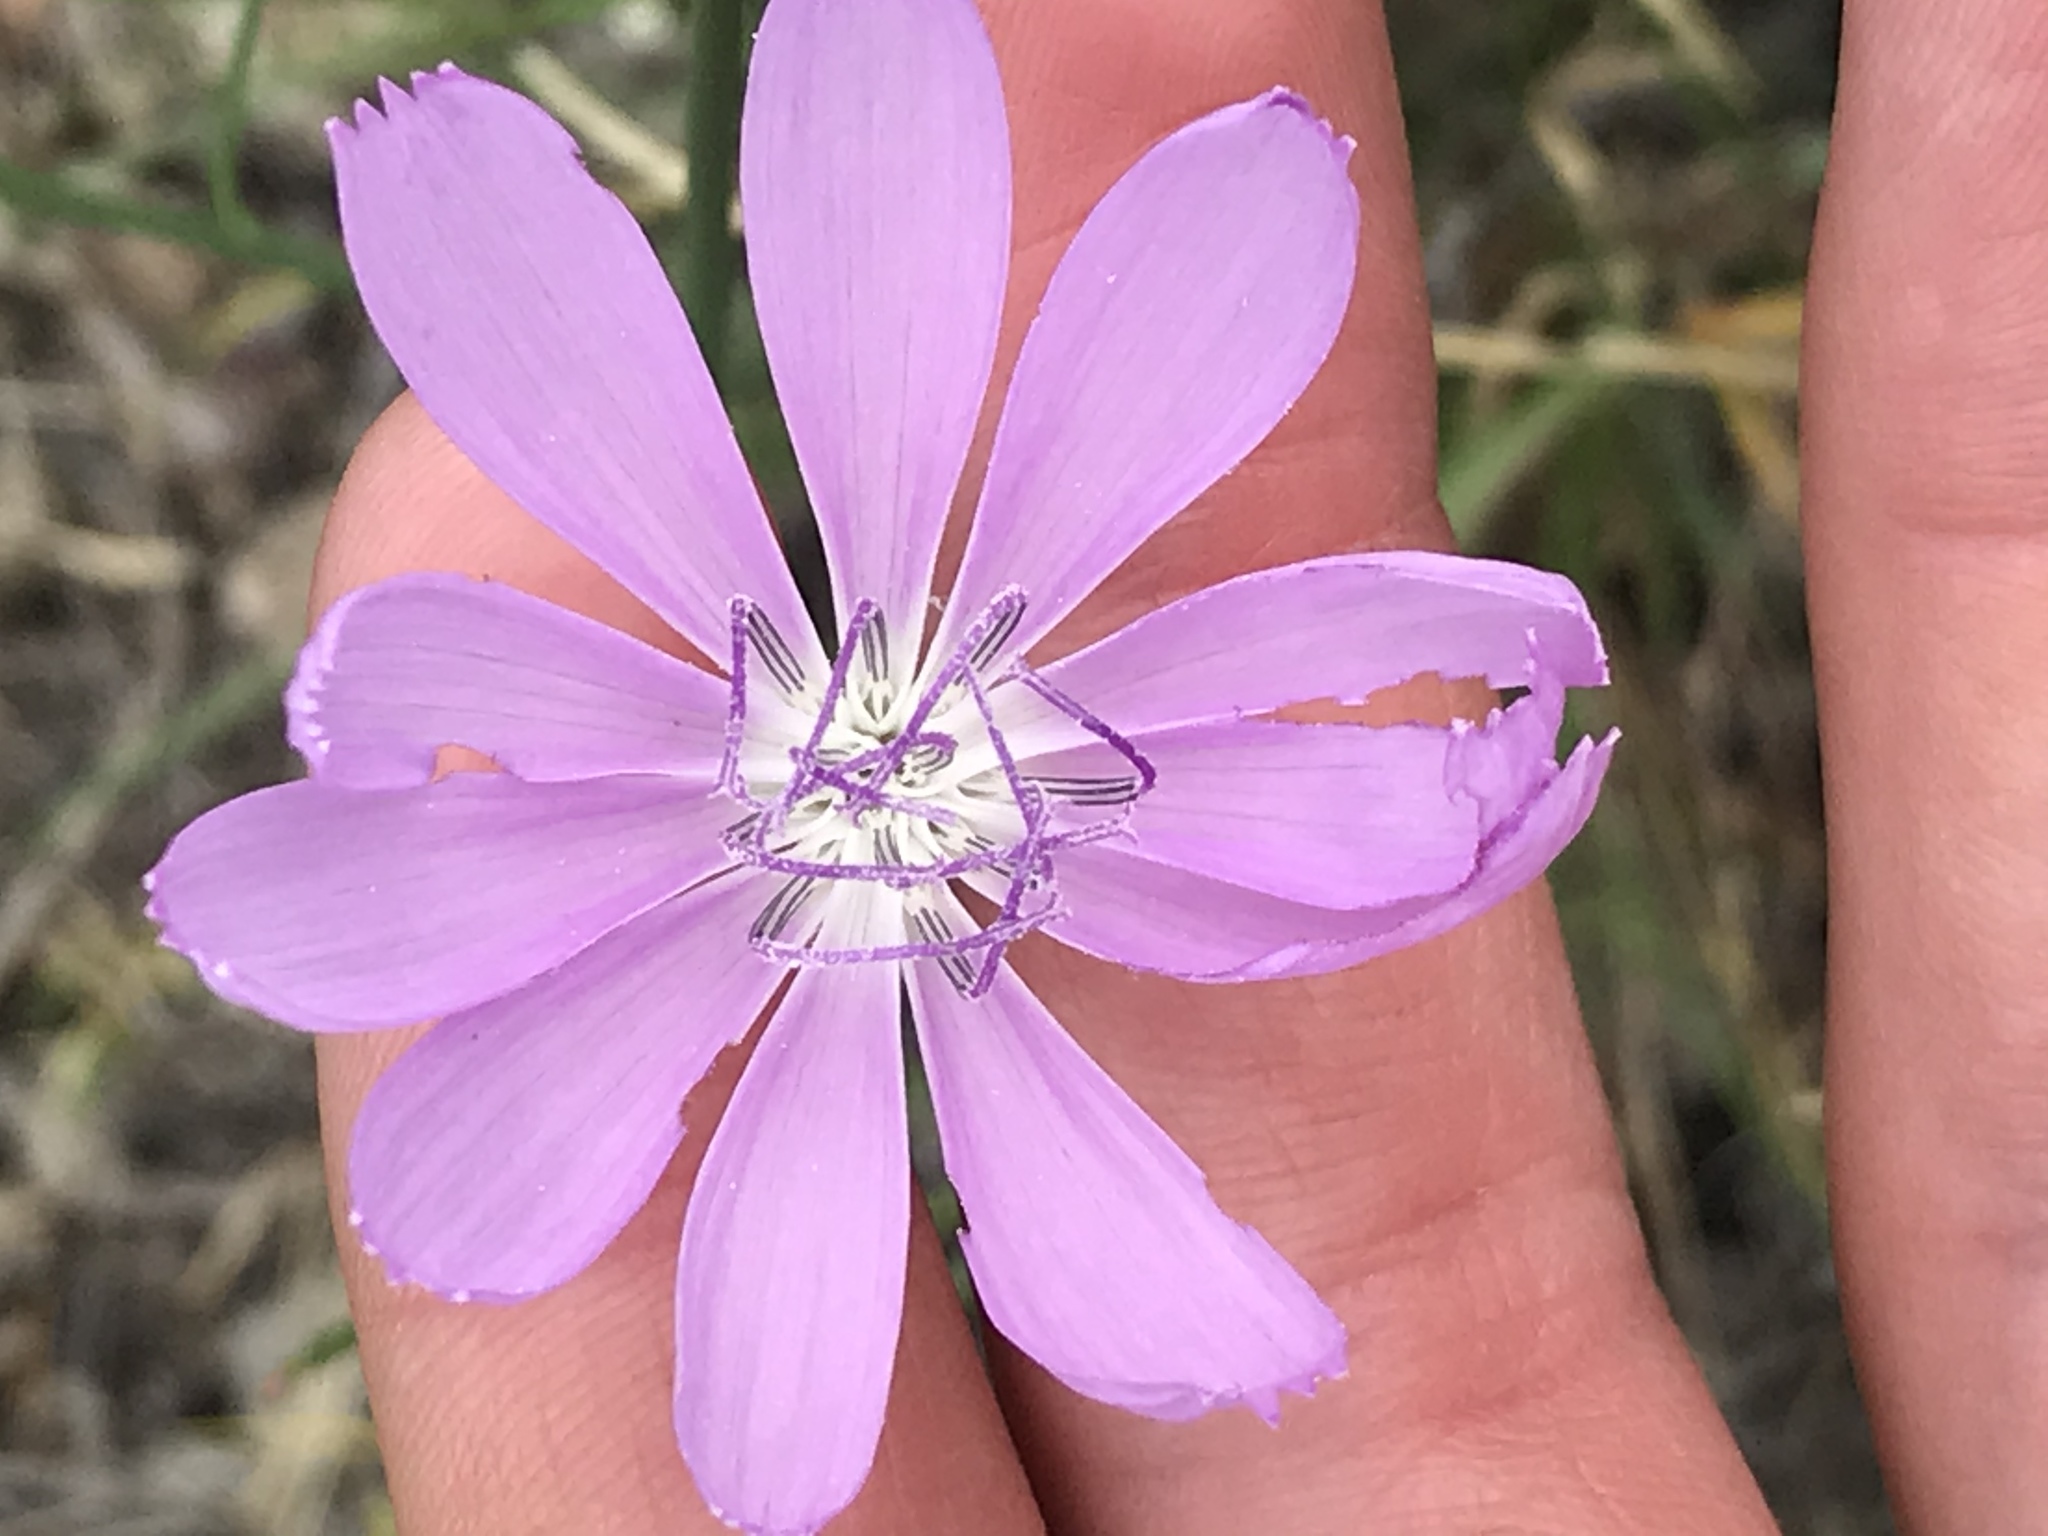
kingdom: Plantae
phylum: Tracheophyta
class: Magnoliopsida
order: Asterales
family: Asteraceae
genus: Lygodesmia
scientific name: Lygodesmia texana
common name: Texas skeleton-plant
